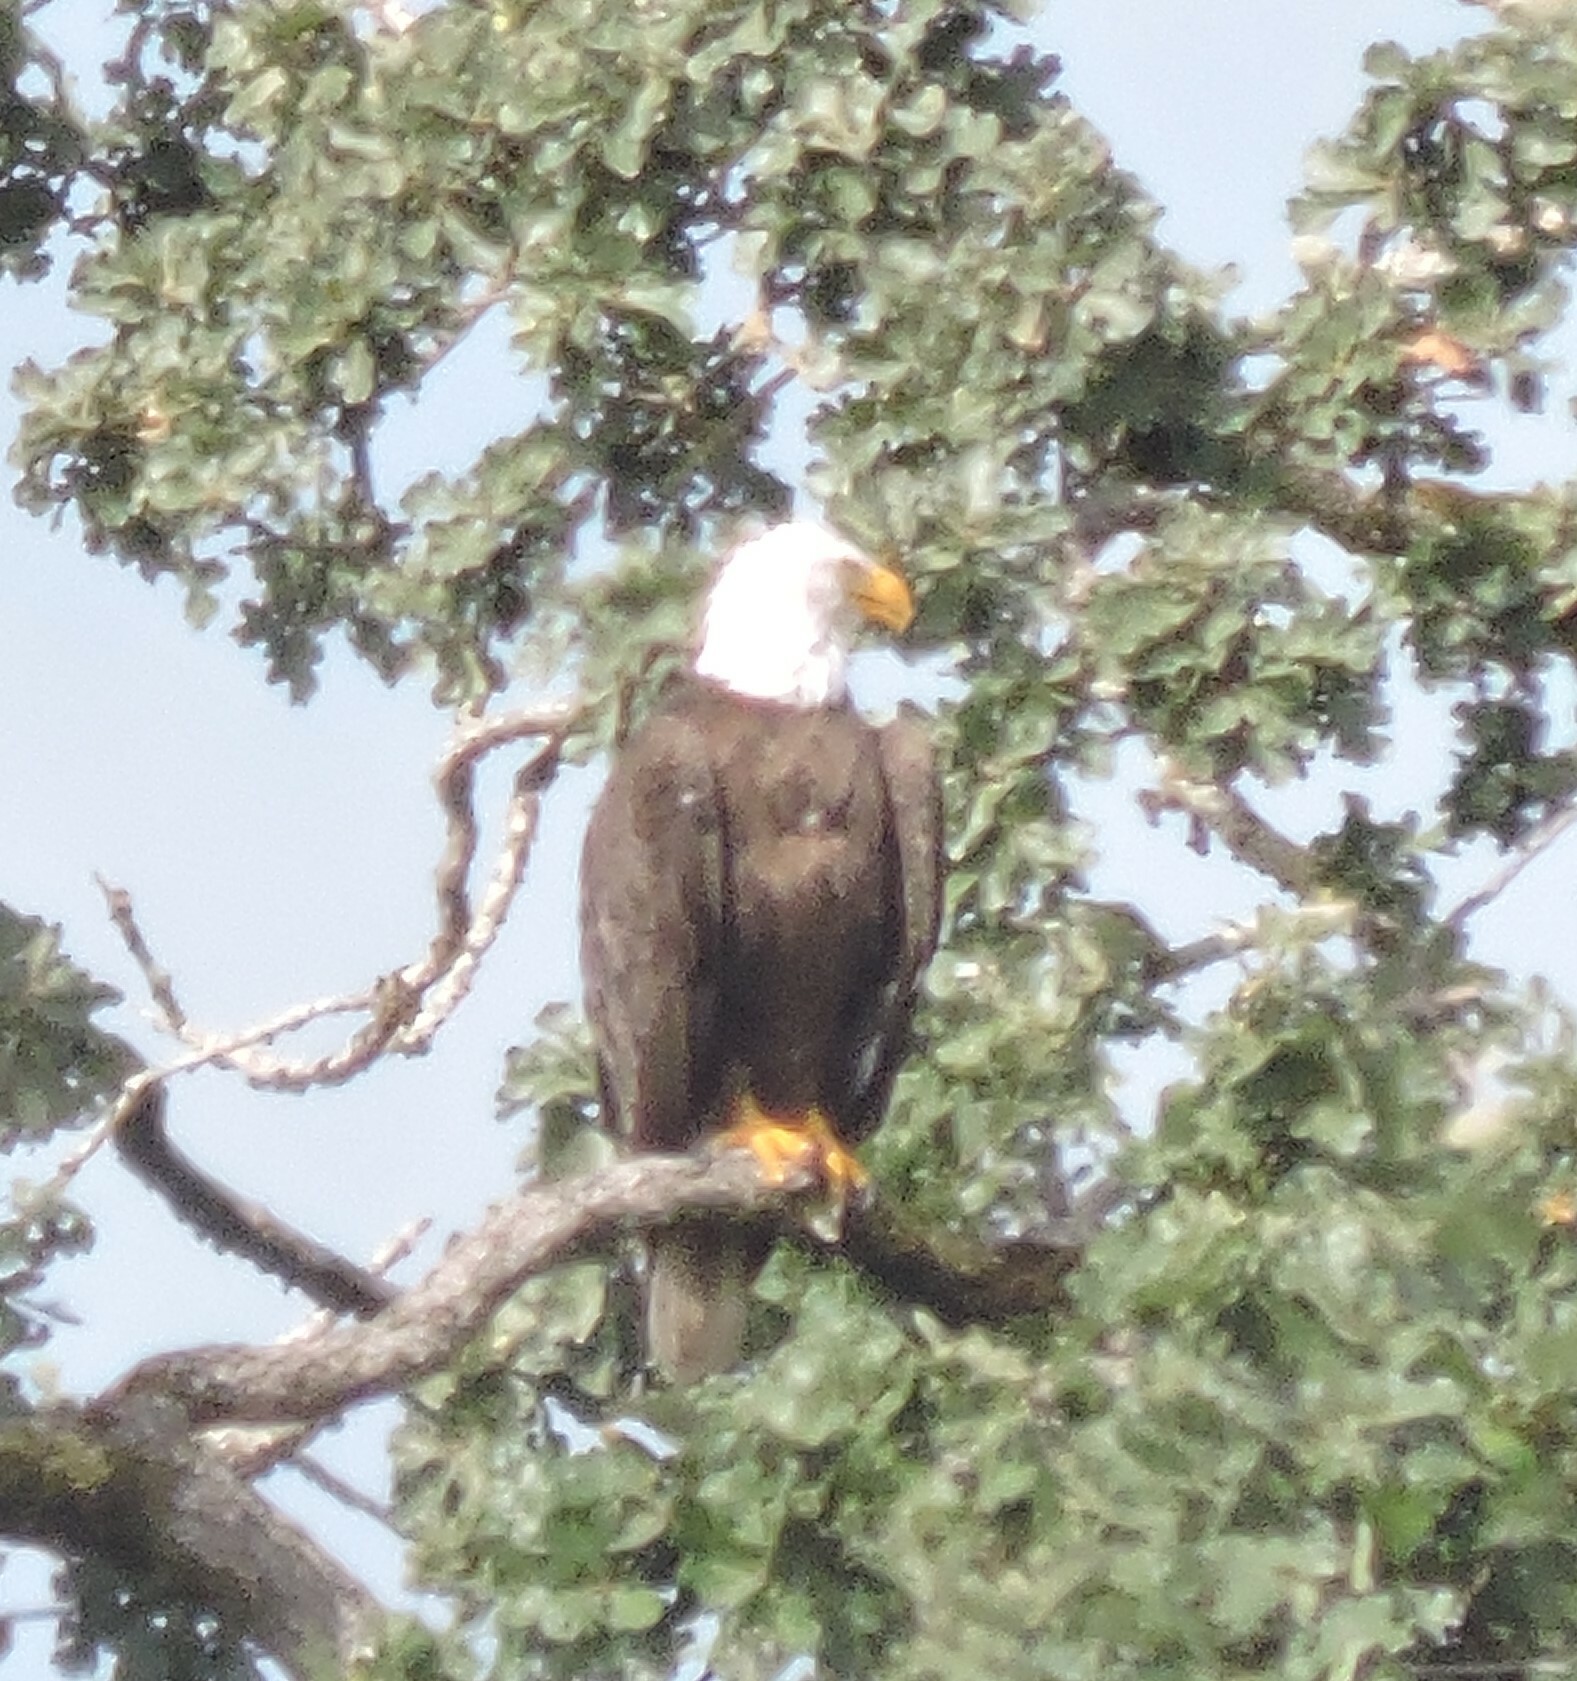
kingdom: Animalia
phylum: Chordata
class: Aves
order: Accipitriformes
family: Accipitridae
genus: Haliaeetus
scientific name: Haliaeetus leucocephalus
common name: Bald eagle
